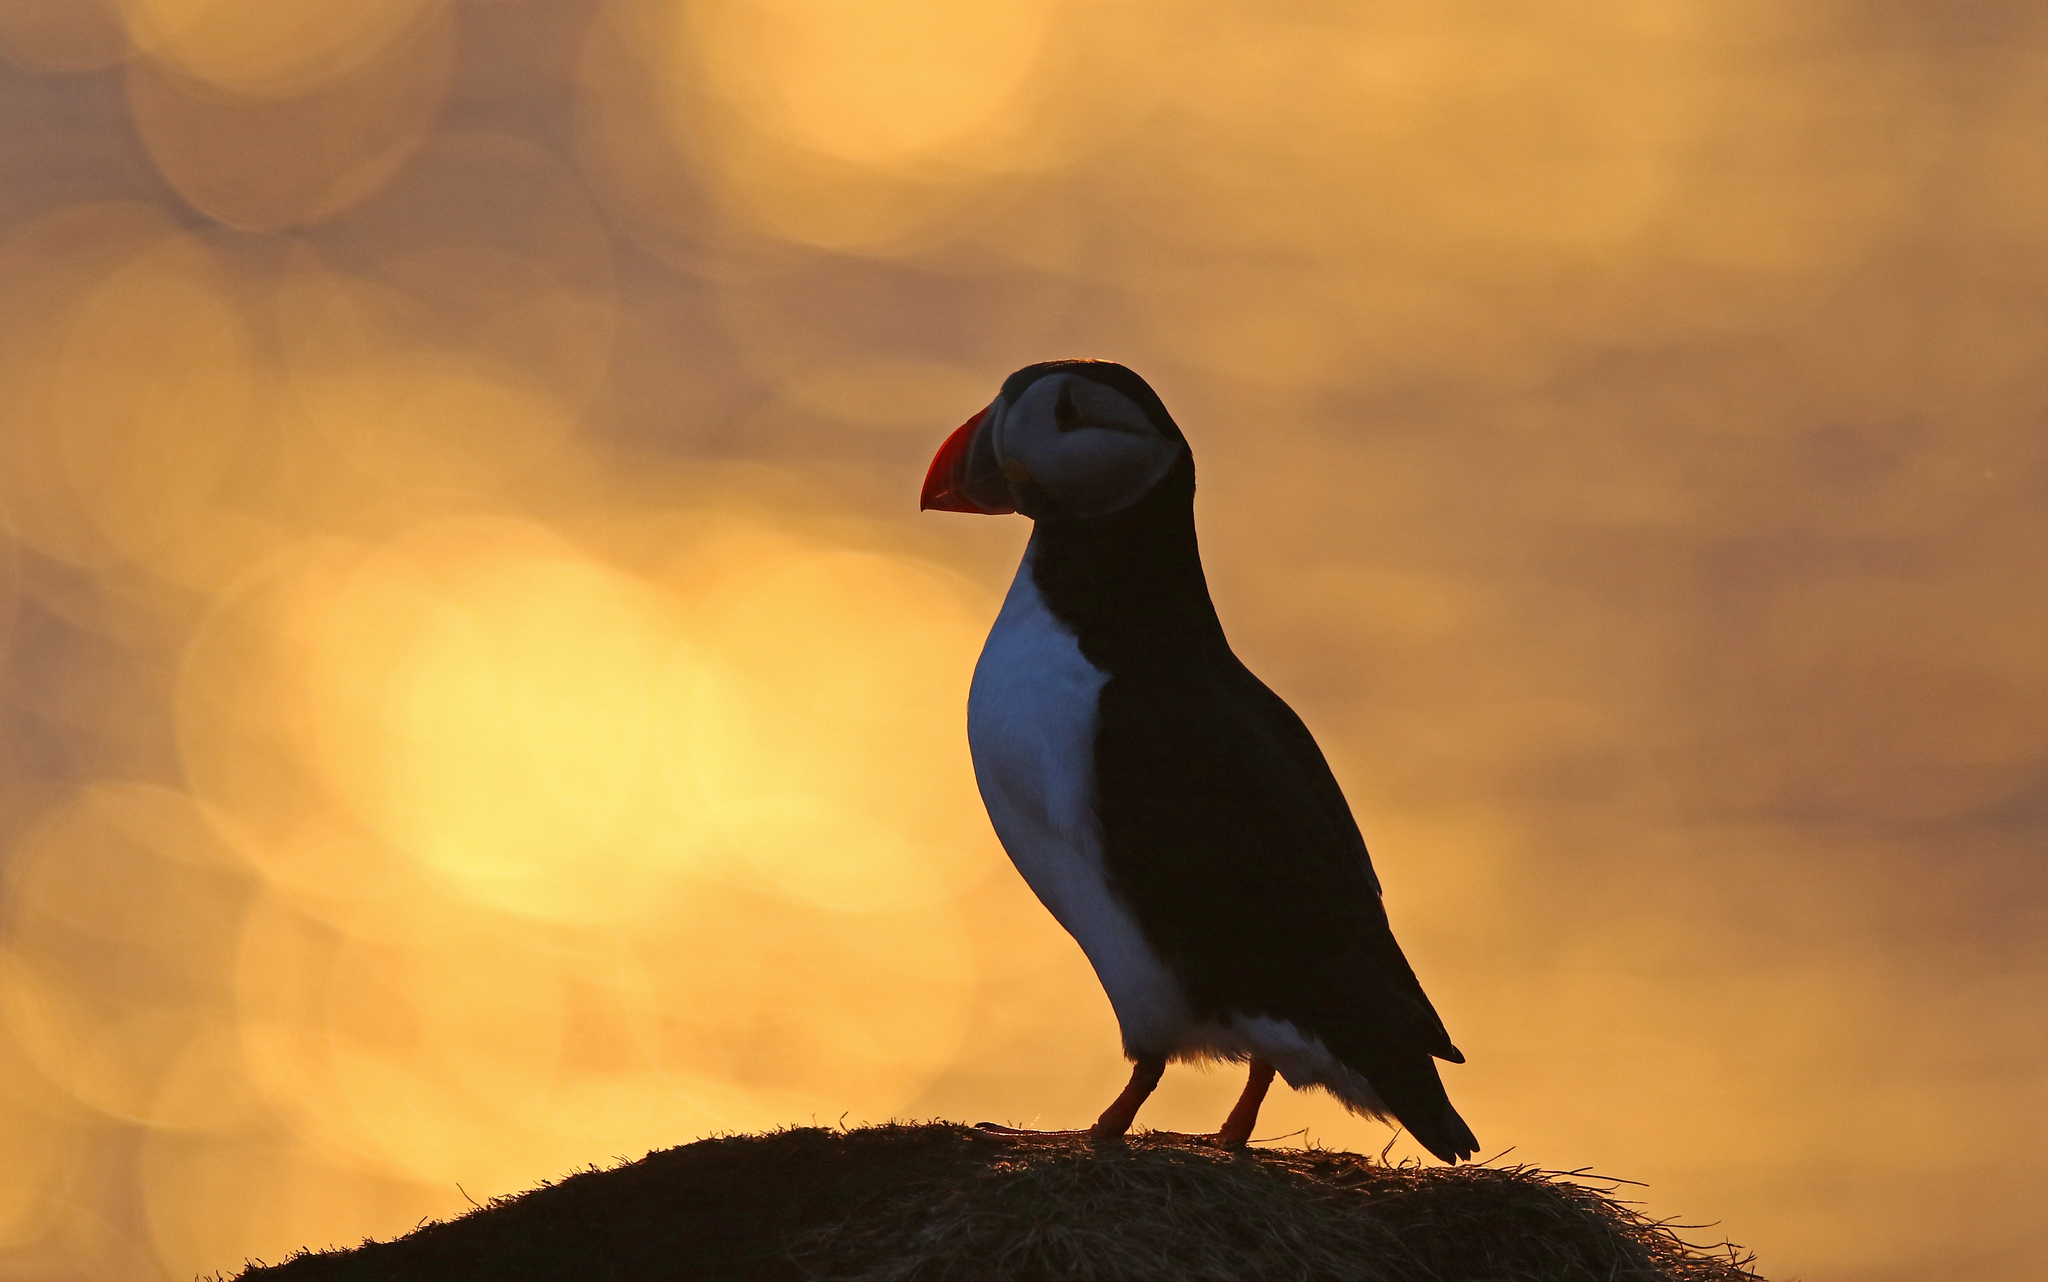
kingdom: Animalia
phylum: Chordata
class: Aves
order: Charadriiformes
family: Alcidae
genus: Fratercula
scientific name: Fratercula arctica
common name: Atlantic puffin
